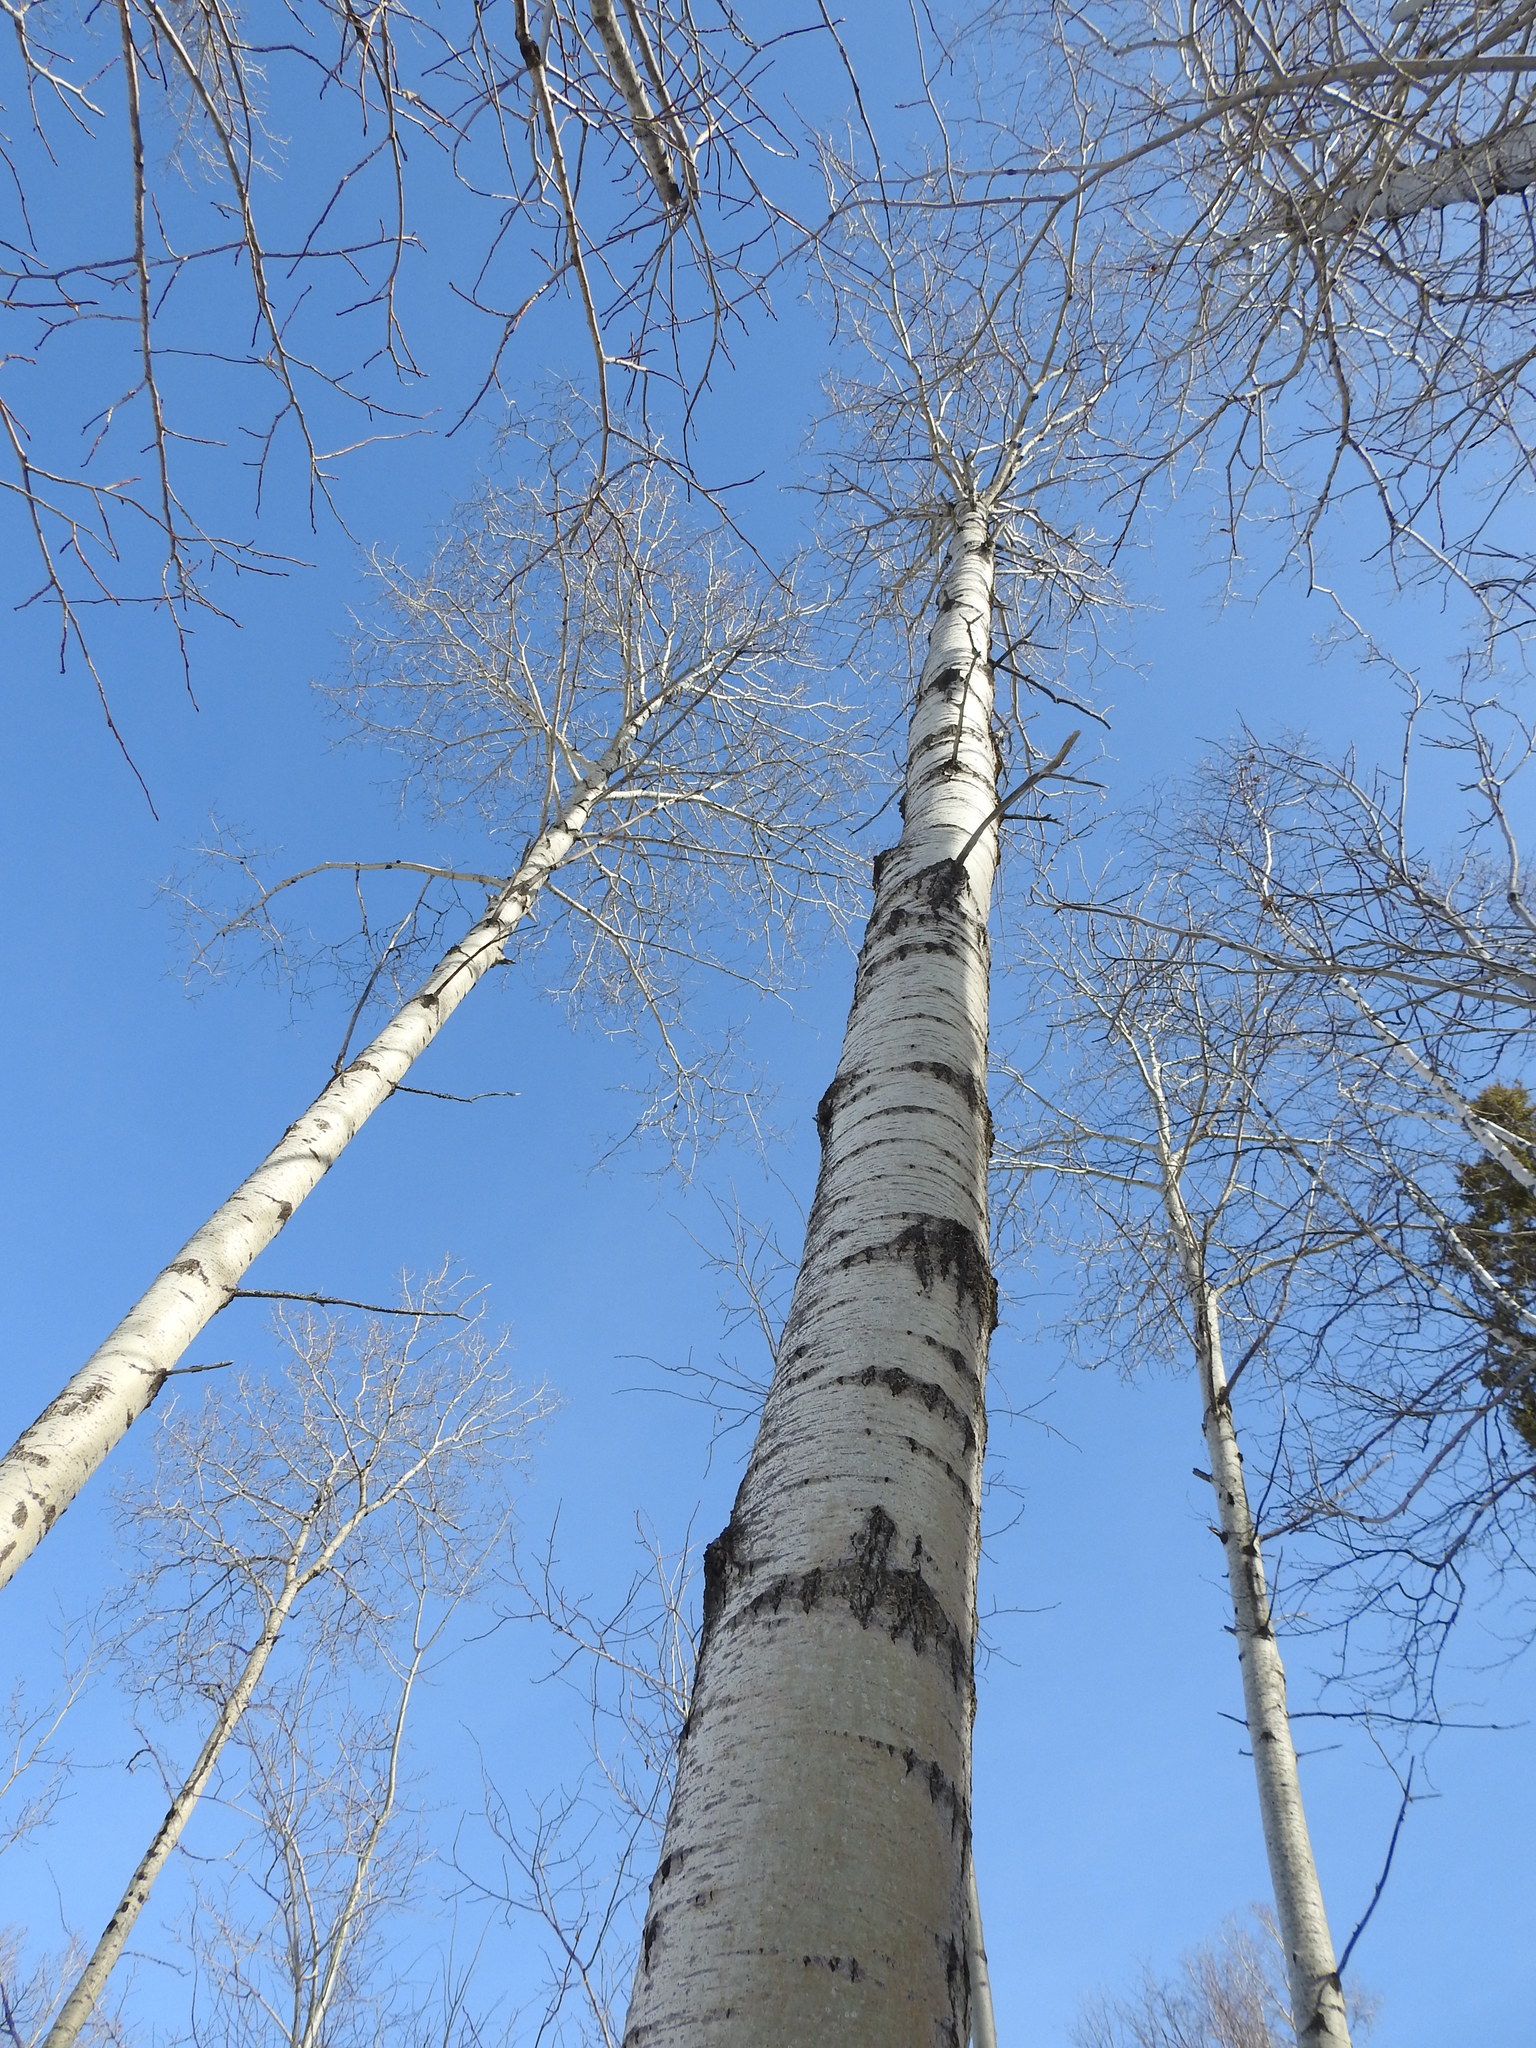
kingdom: Plantae
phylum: Tracheophyta
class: Magnoliopsida
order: Malpighiales
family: Salicaceae
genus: Populus
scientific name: Populus tremuloides
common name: Quaking aspen
